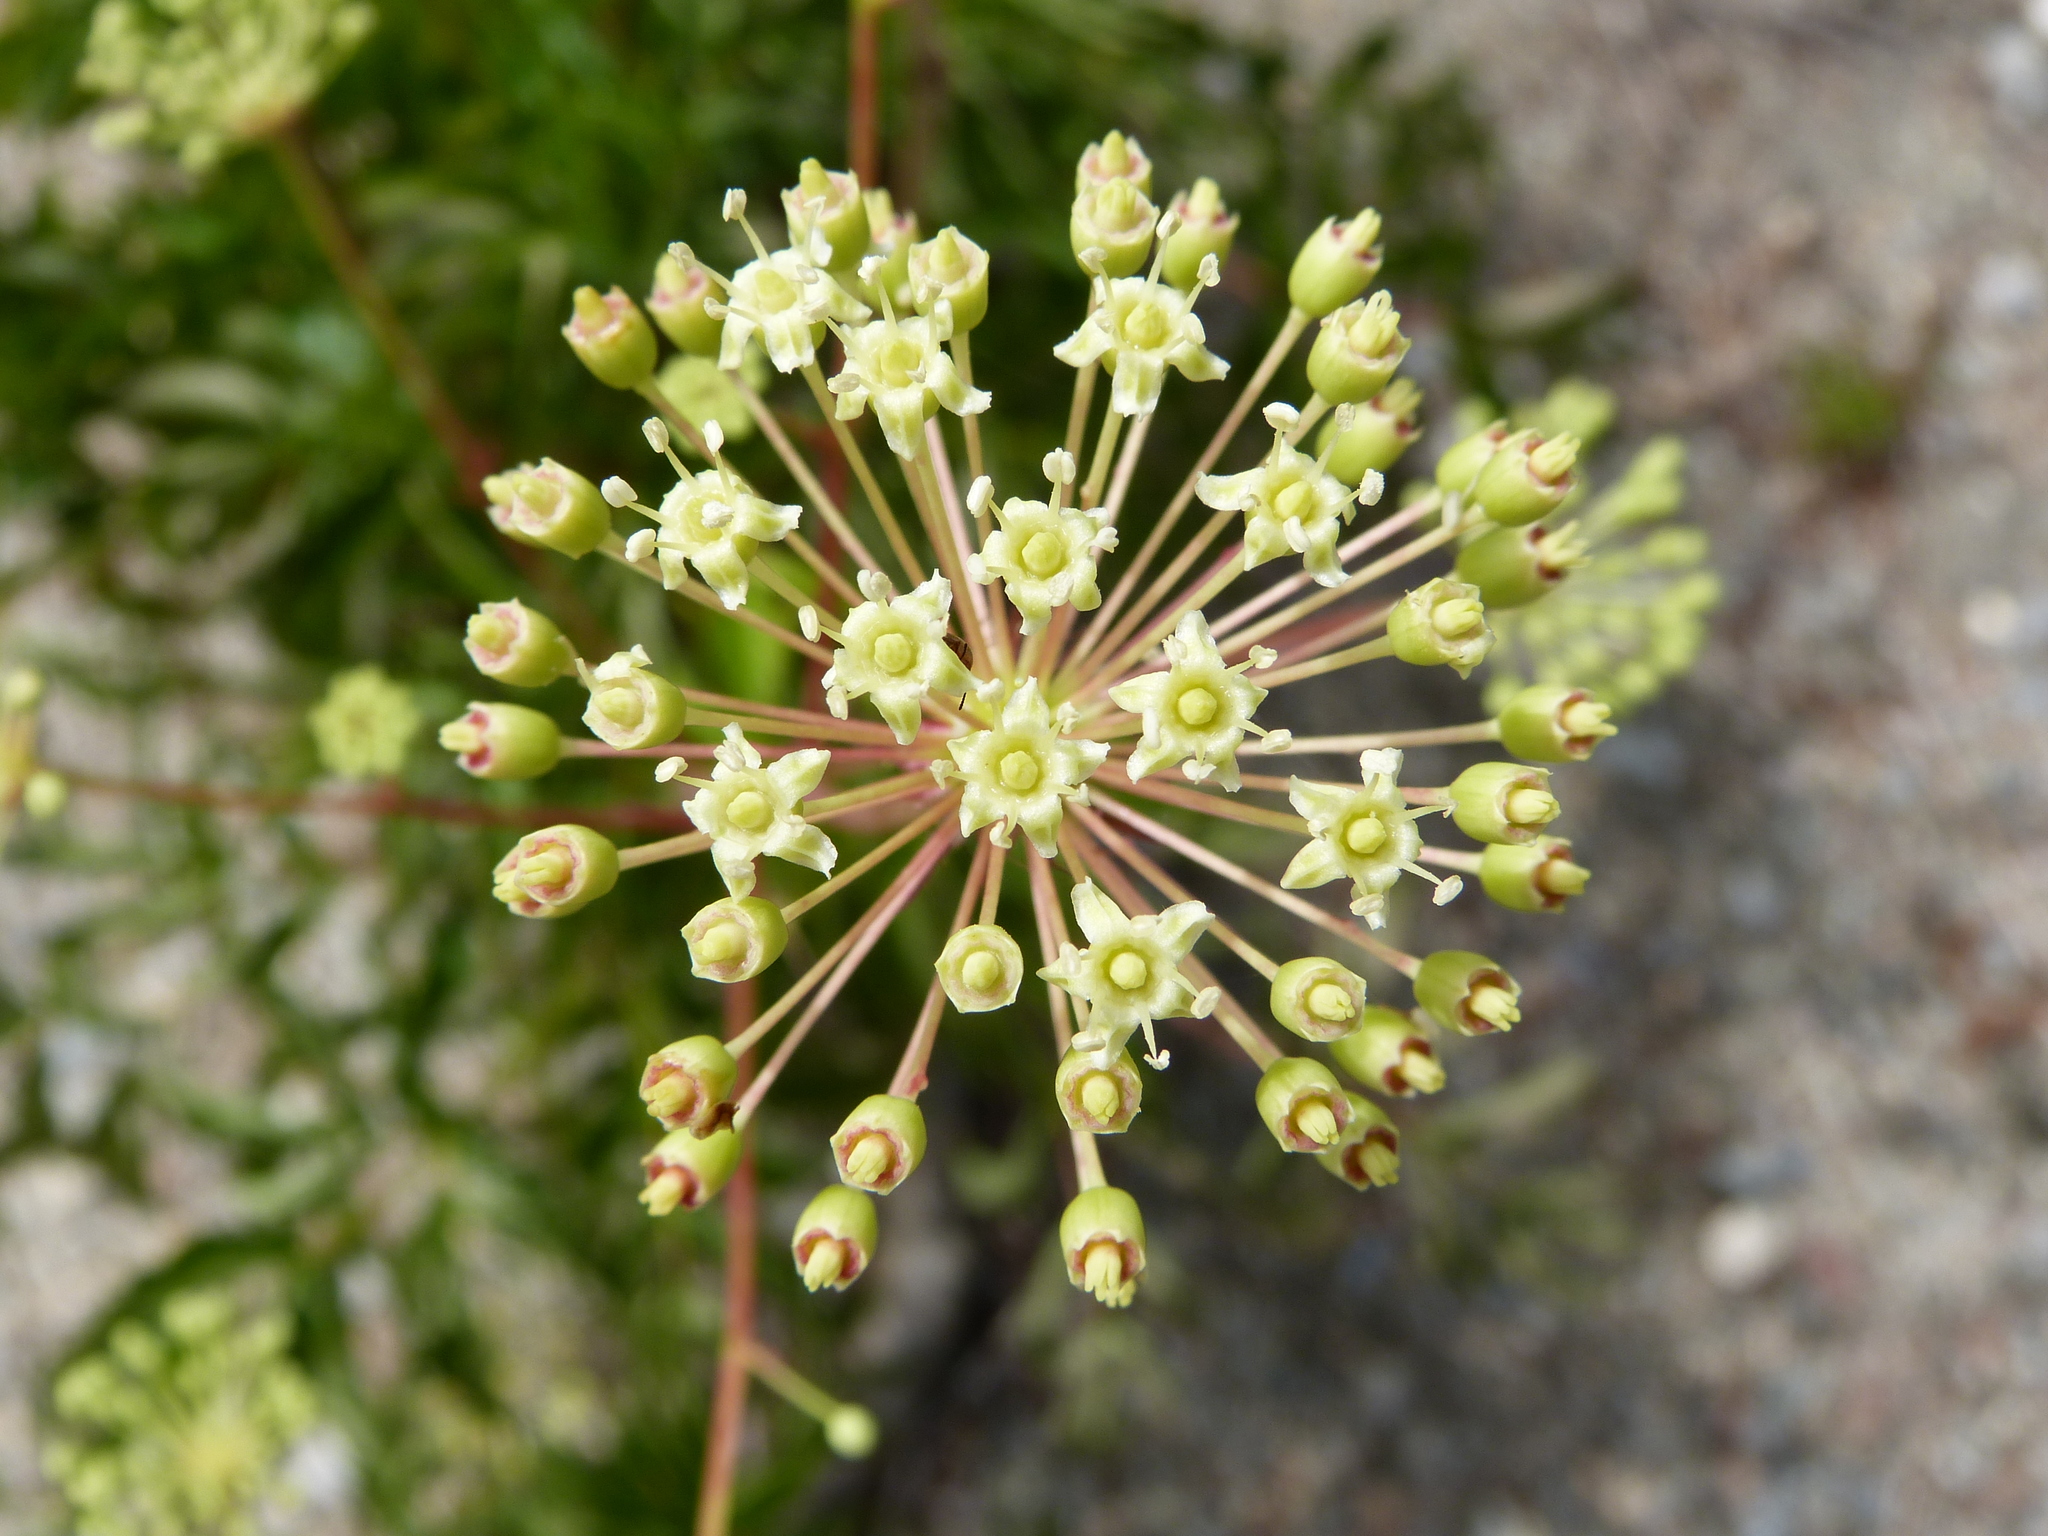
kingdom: Plantae
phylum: Tracheophyta
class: Magnoliopsida
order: Apiales
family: Araliaceae
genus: Aralia
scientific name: Aralia hispida
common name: Bristly sarsaparilla
